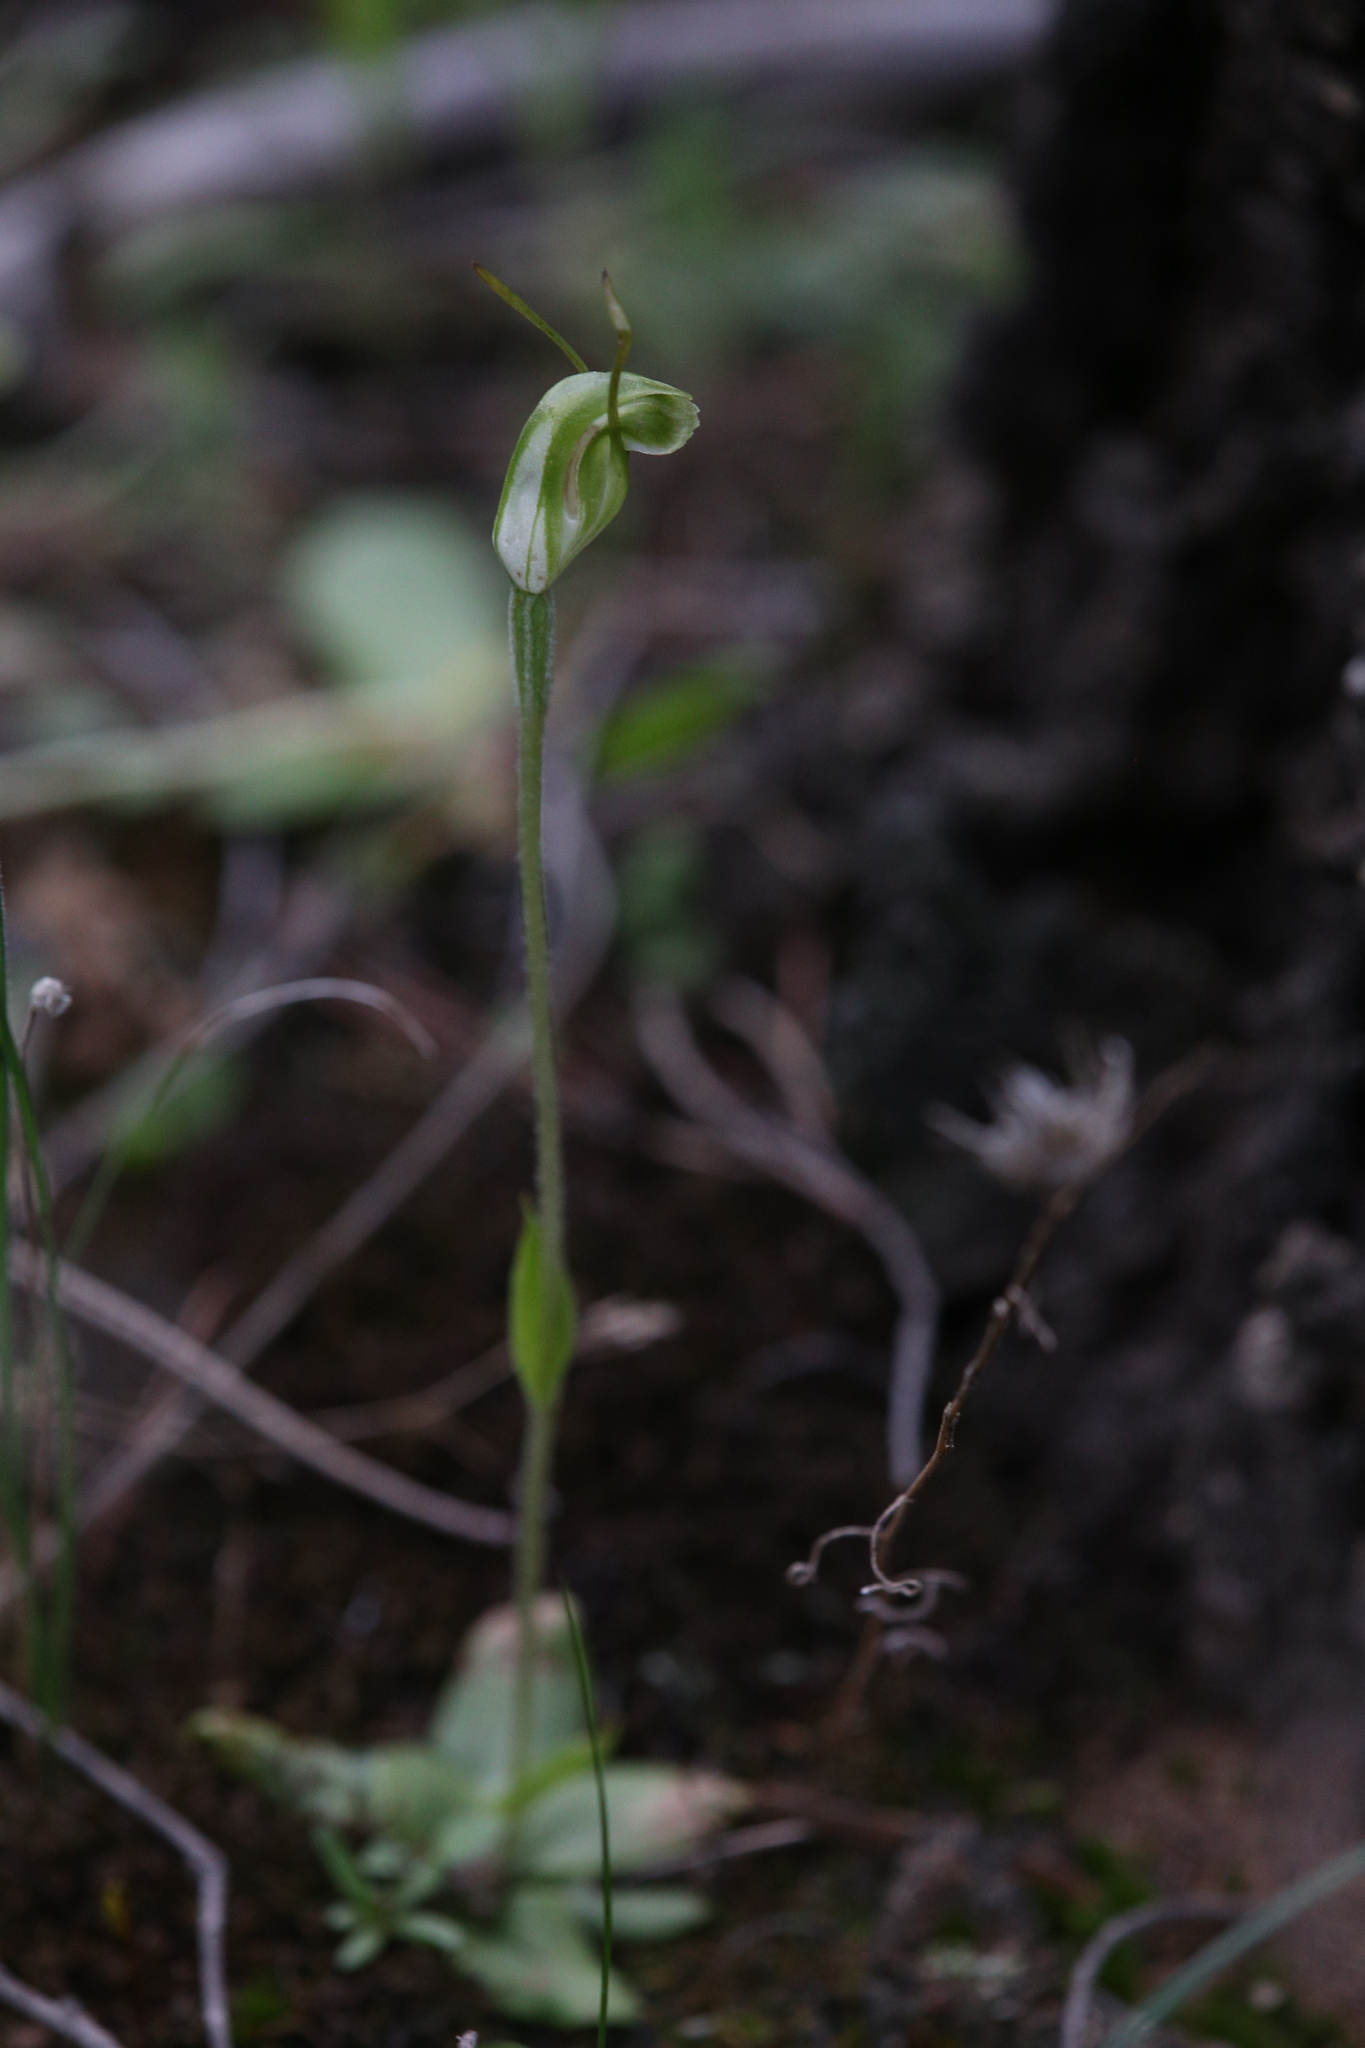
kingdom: Plantae
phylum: Tracheophyta
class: Liliopsida
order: Asparagales
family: Orchidaceae
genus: Pterostylis
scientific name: Pterostylis setulosa
